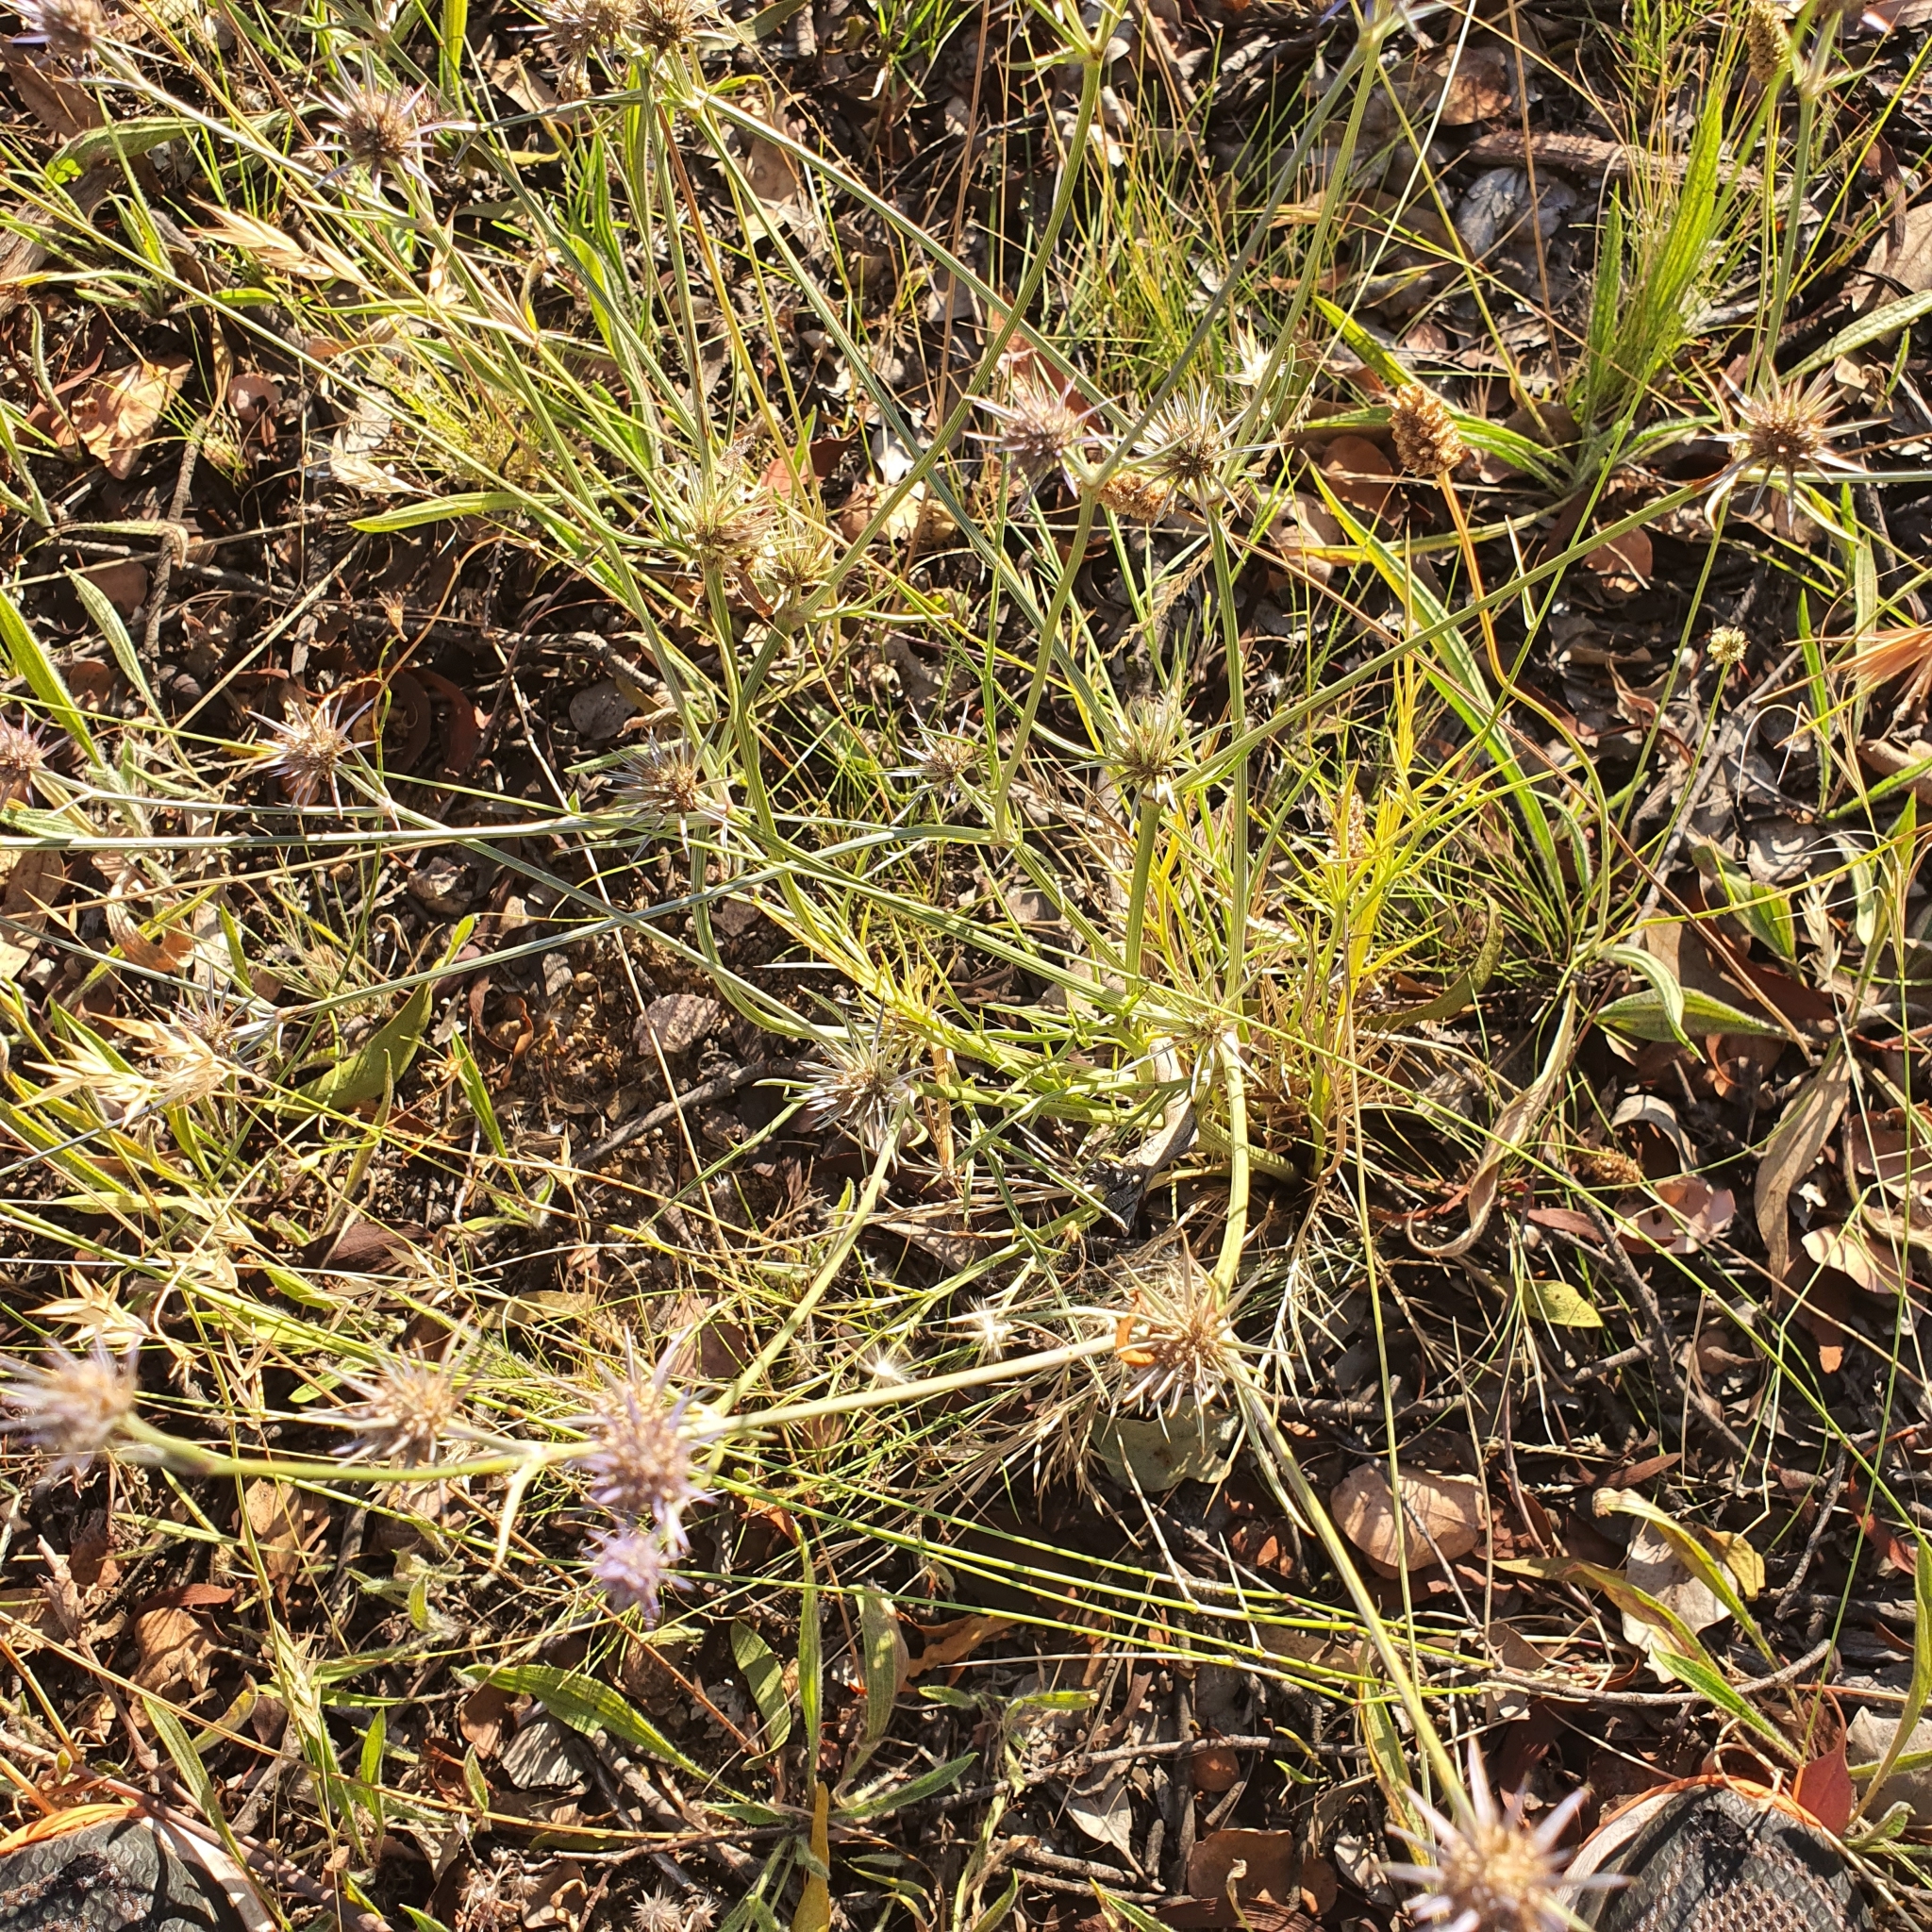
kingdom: Plantae
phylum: Tracheophyta
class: Magnoliopsida
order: Apiales
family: Apiaceae
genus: Eryngium
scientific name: Eryngium ovinum
